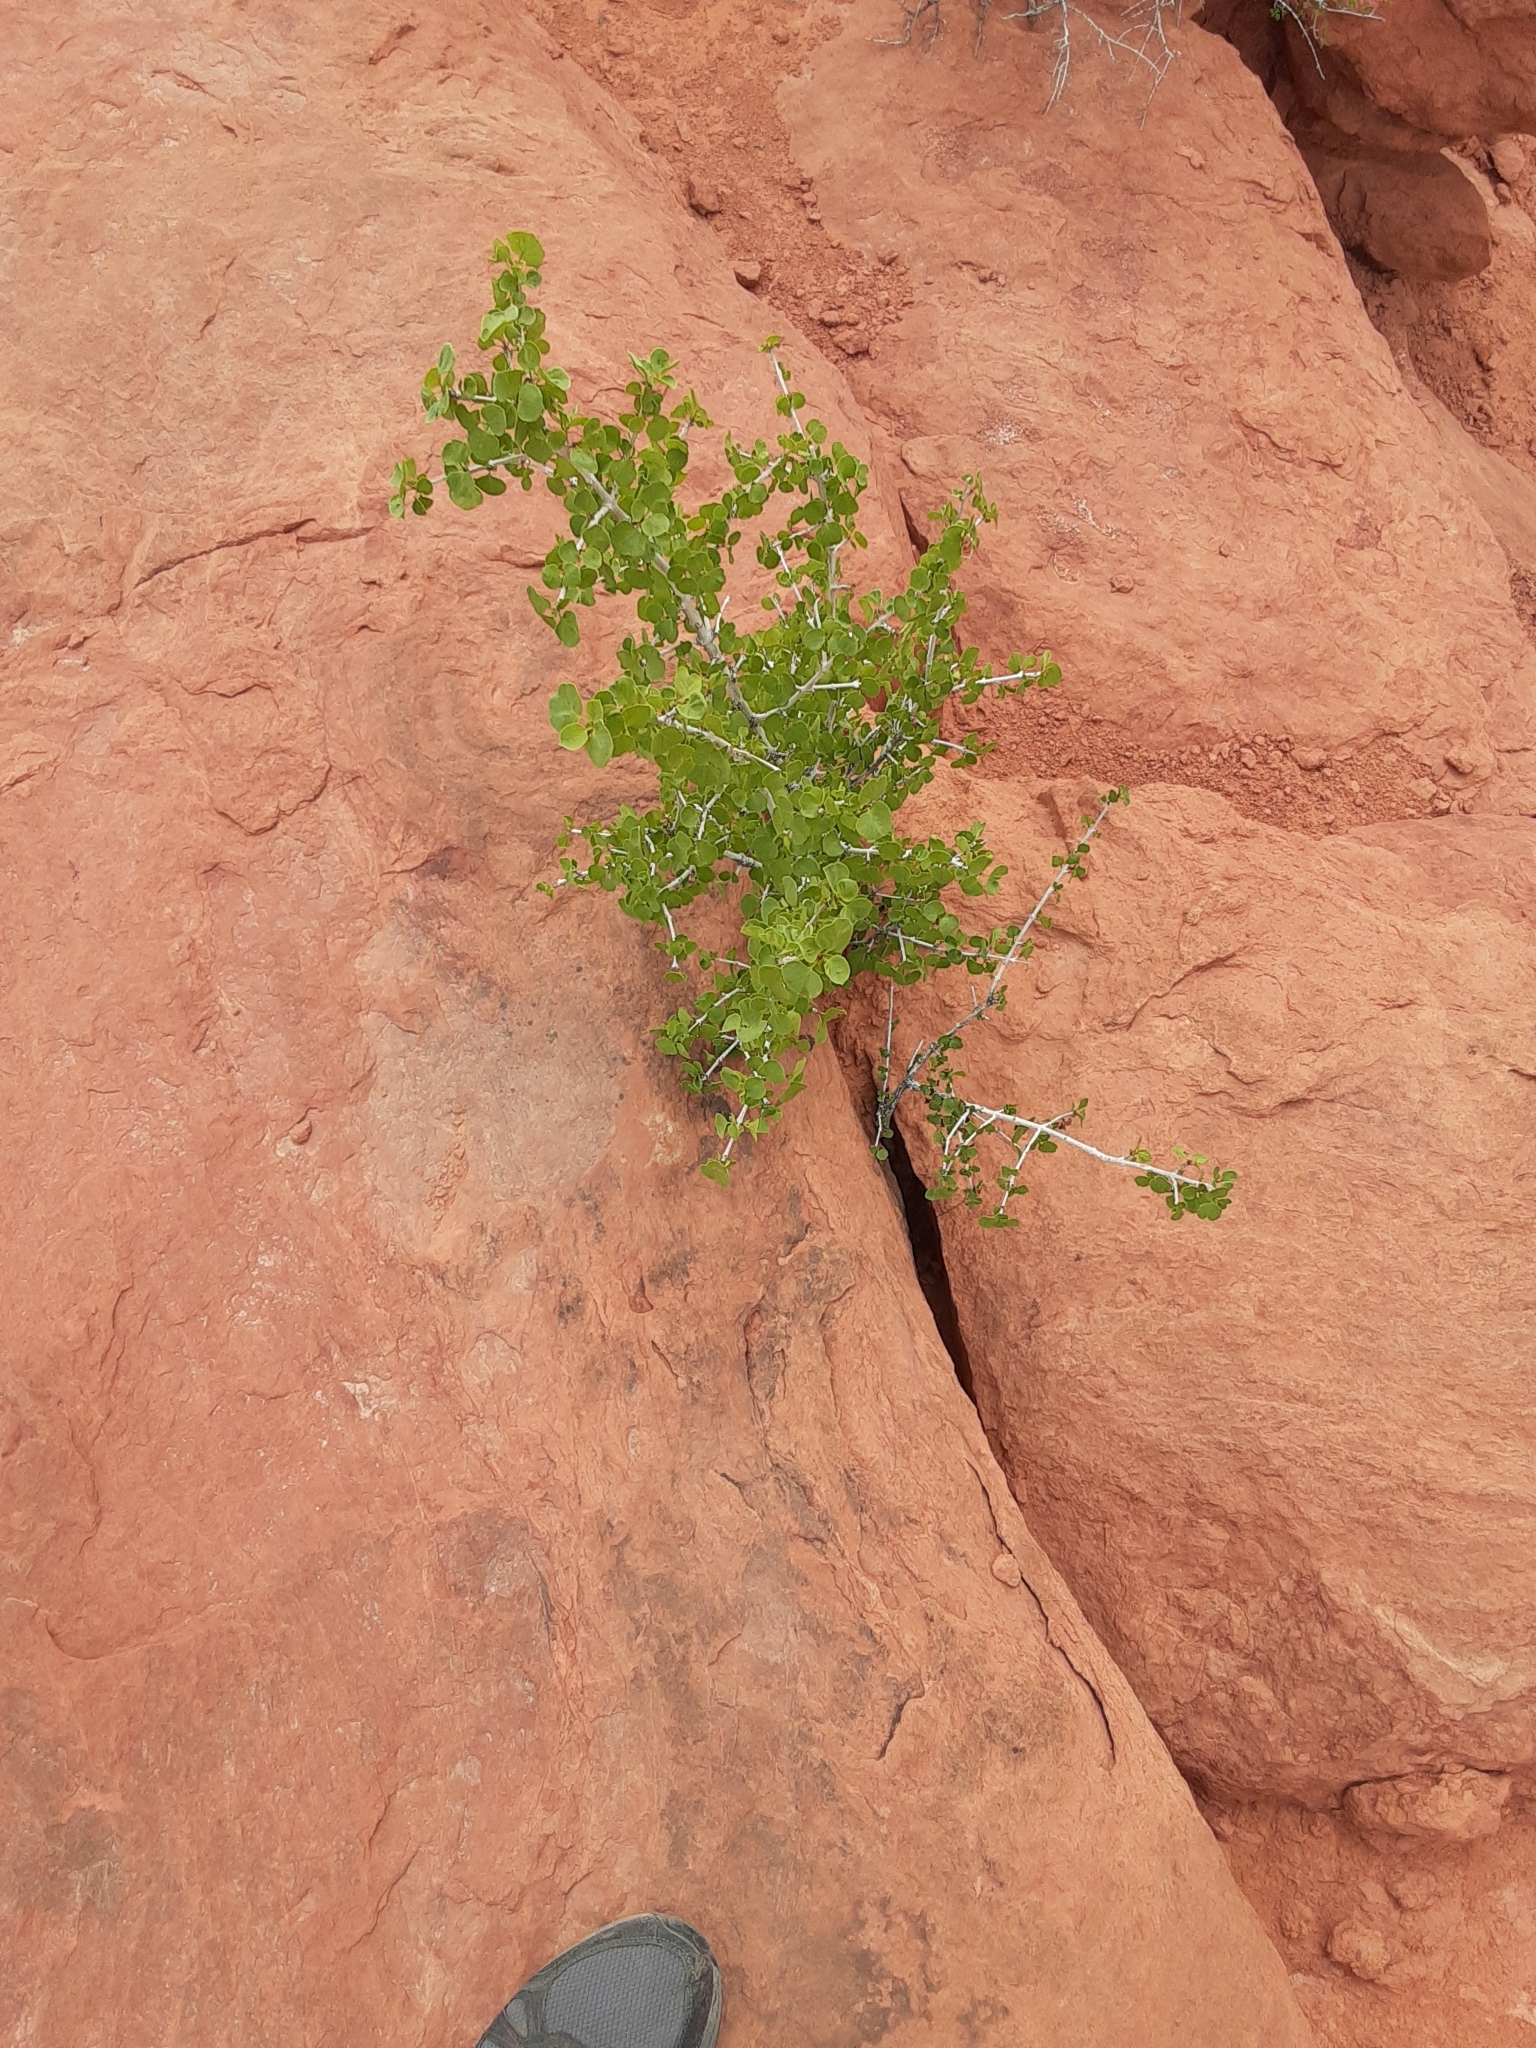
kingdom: Plantae
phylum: Tracheophyta
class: Magnoliopsida
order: Lamiales
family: Oleaceae
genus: Fraxinus
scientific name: Fraxinus anomala
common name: Utah ash
